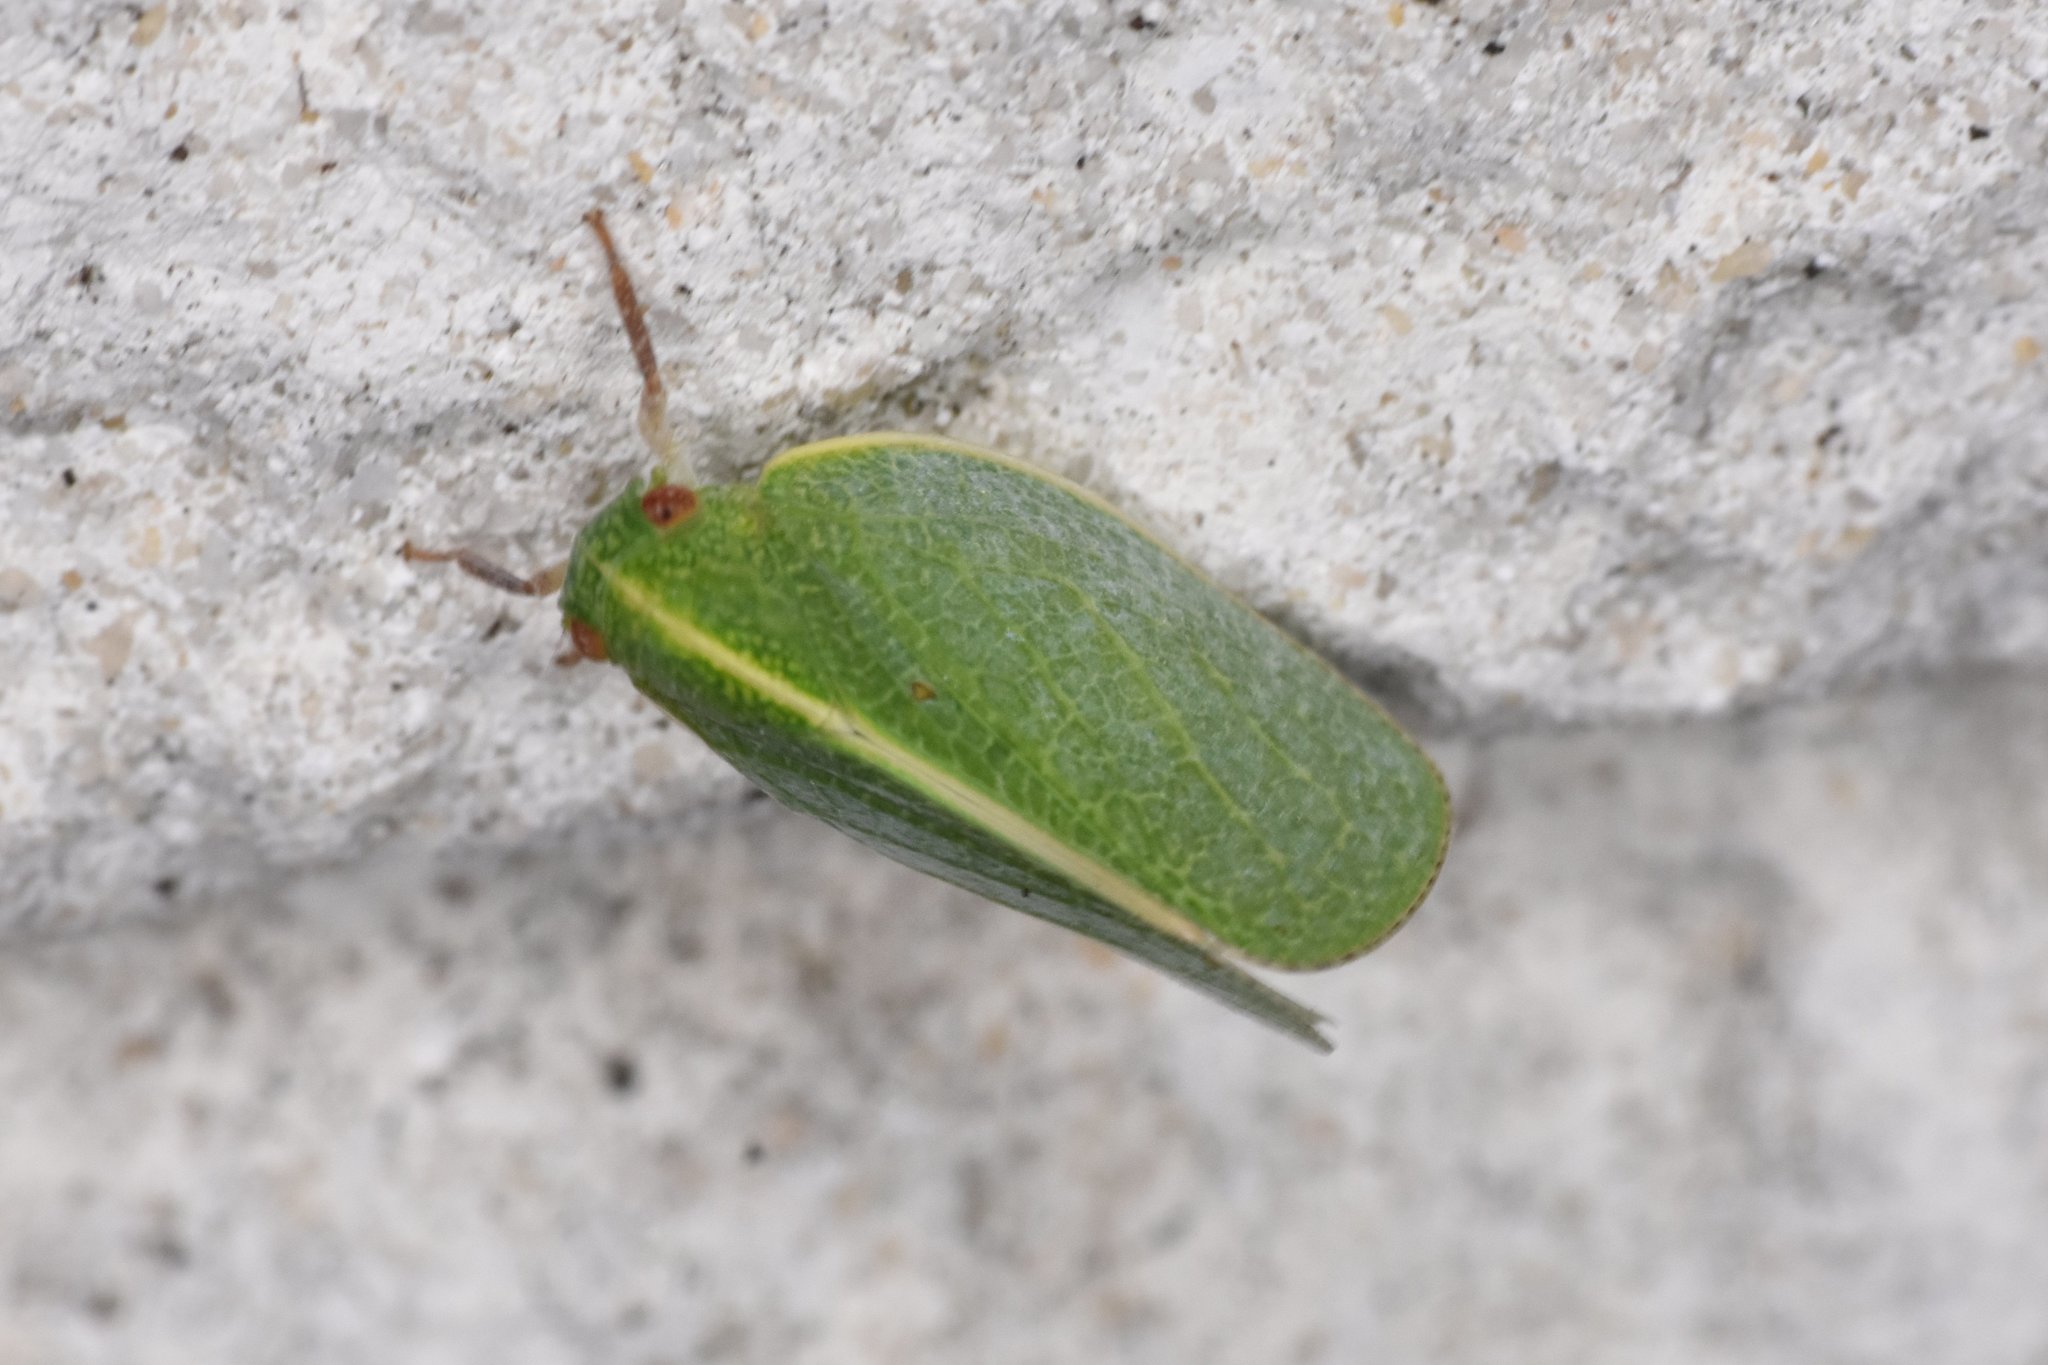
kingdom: Animalia
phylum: Arthropoda
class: Insecta
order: Hemiptera
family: Acanaloniidae
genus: Acanalonia
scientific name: Acanalonia servillei
